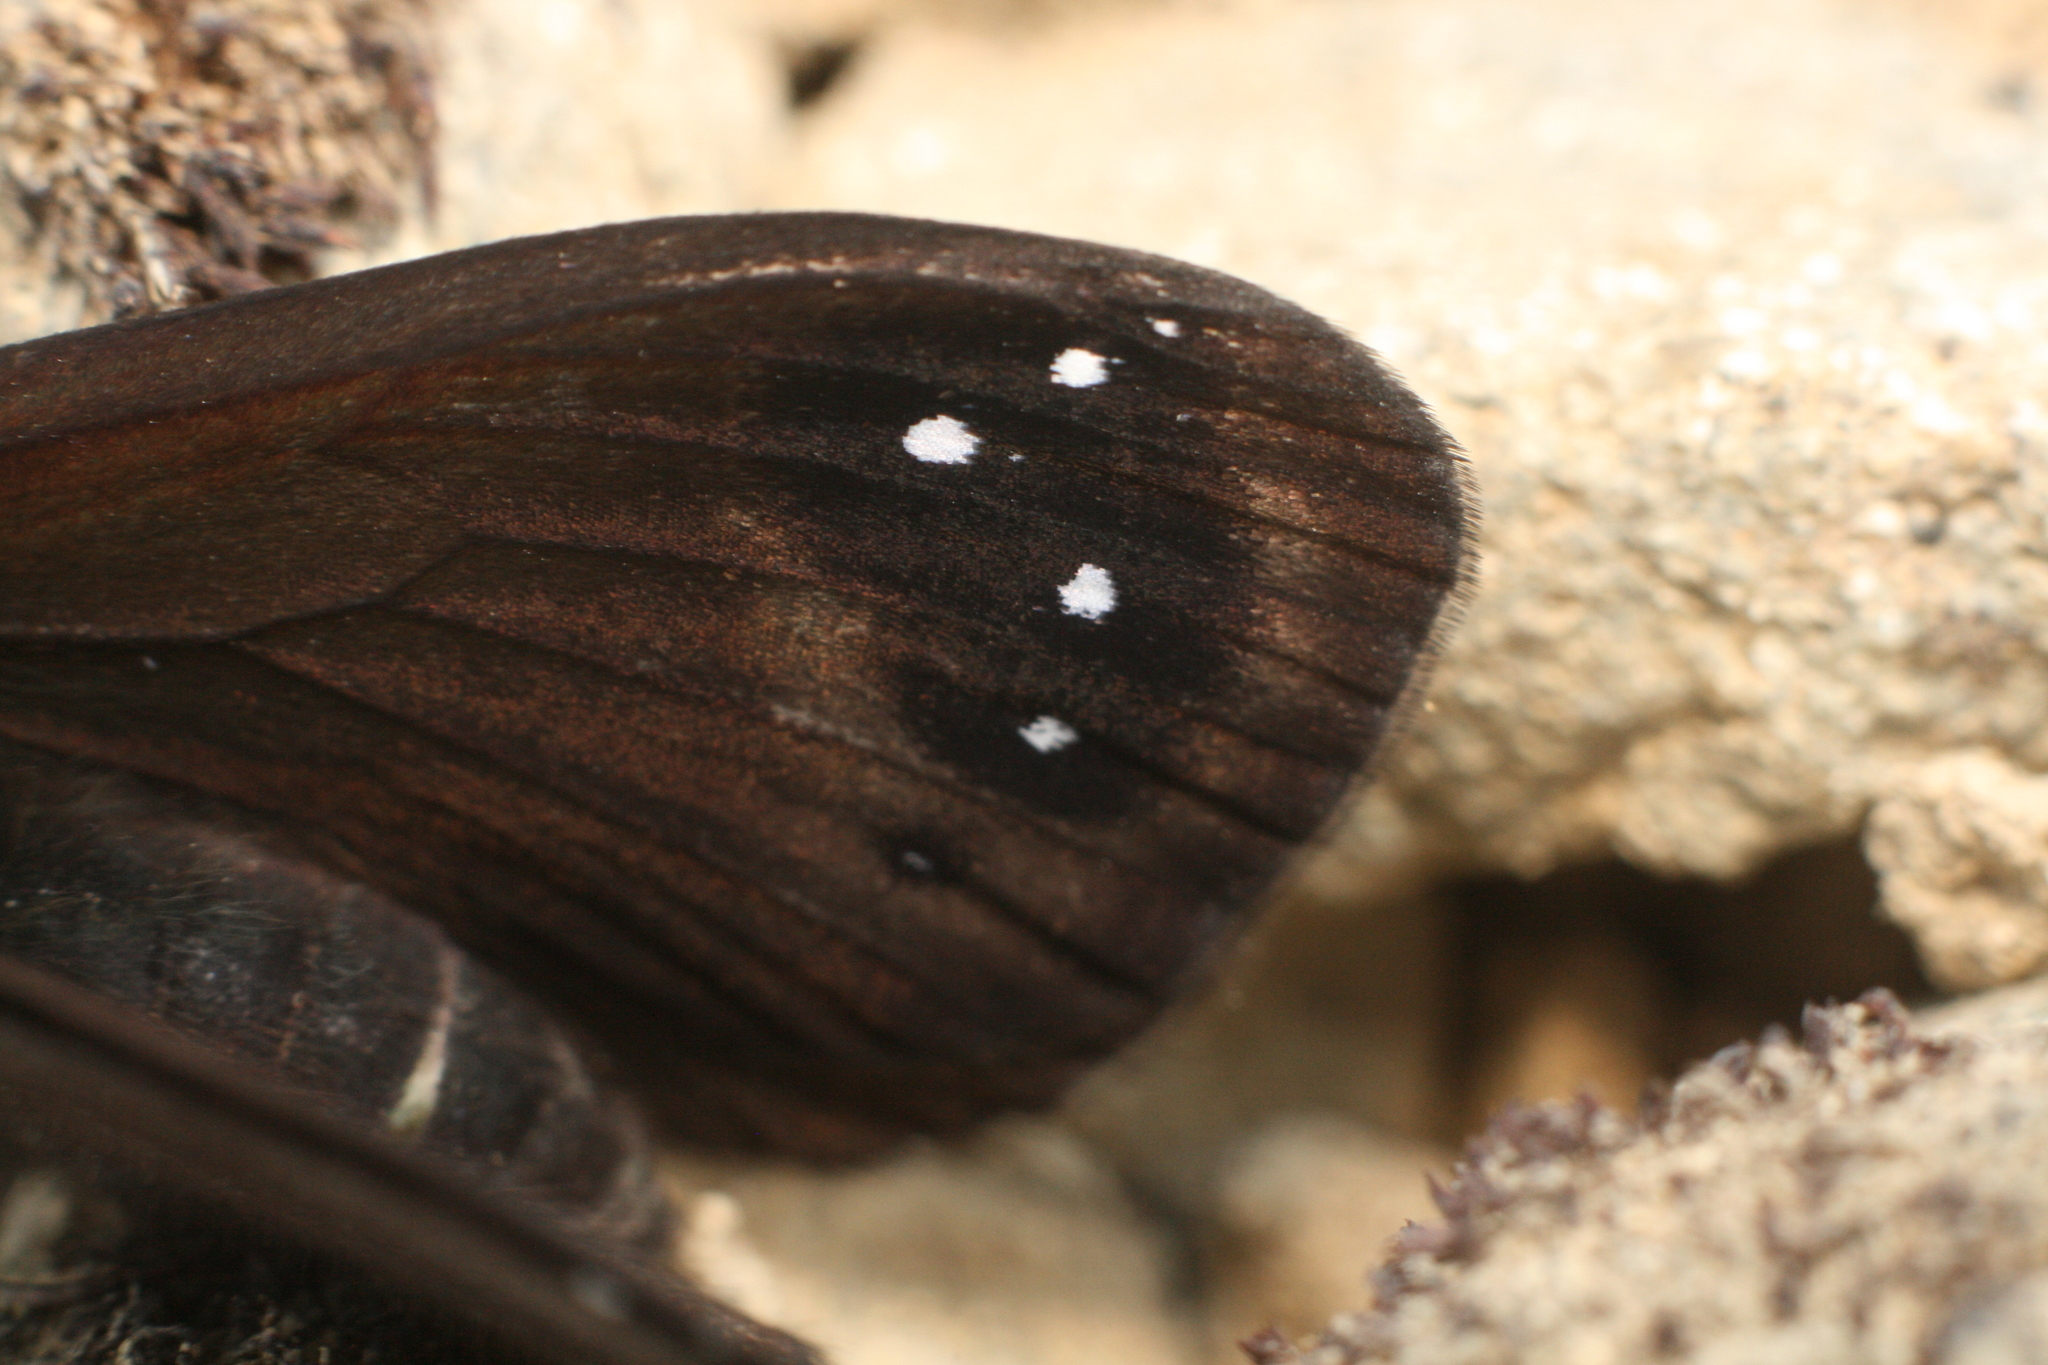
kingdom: Animalia
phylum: Arthropoda
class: Insecta
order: Lepidoptera
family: Nymphalidae
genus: Erebia
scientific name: Erebia Percnodaimon merula
